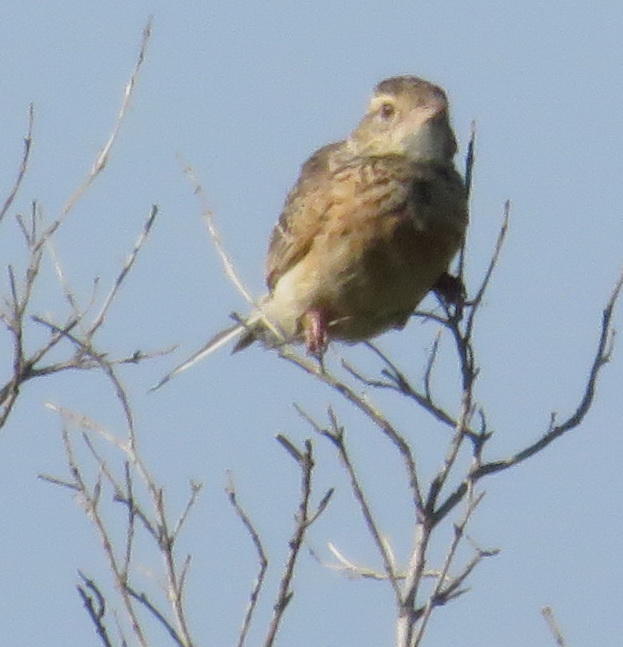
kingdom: Animalia
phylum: Chordata
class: Aves
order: Passeriformes
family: Alaudidae
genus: Mirafra
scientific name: Mirafra africana
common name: Rufous-naped lark
